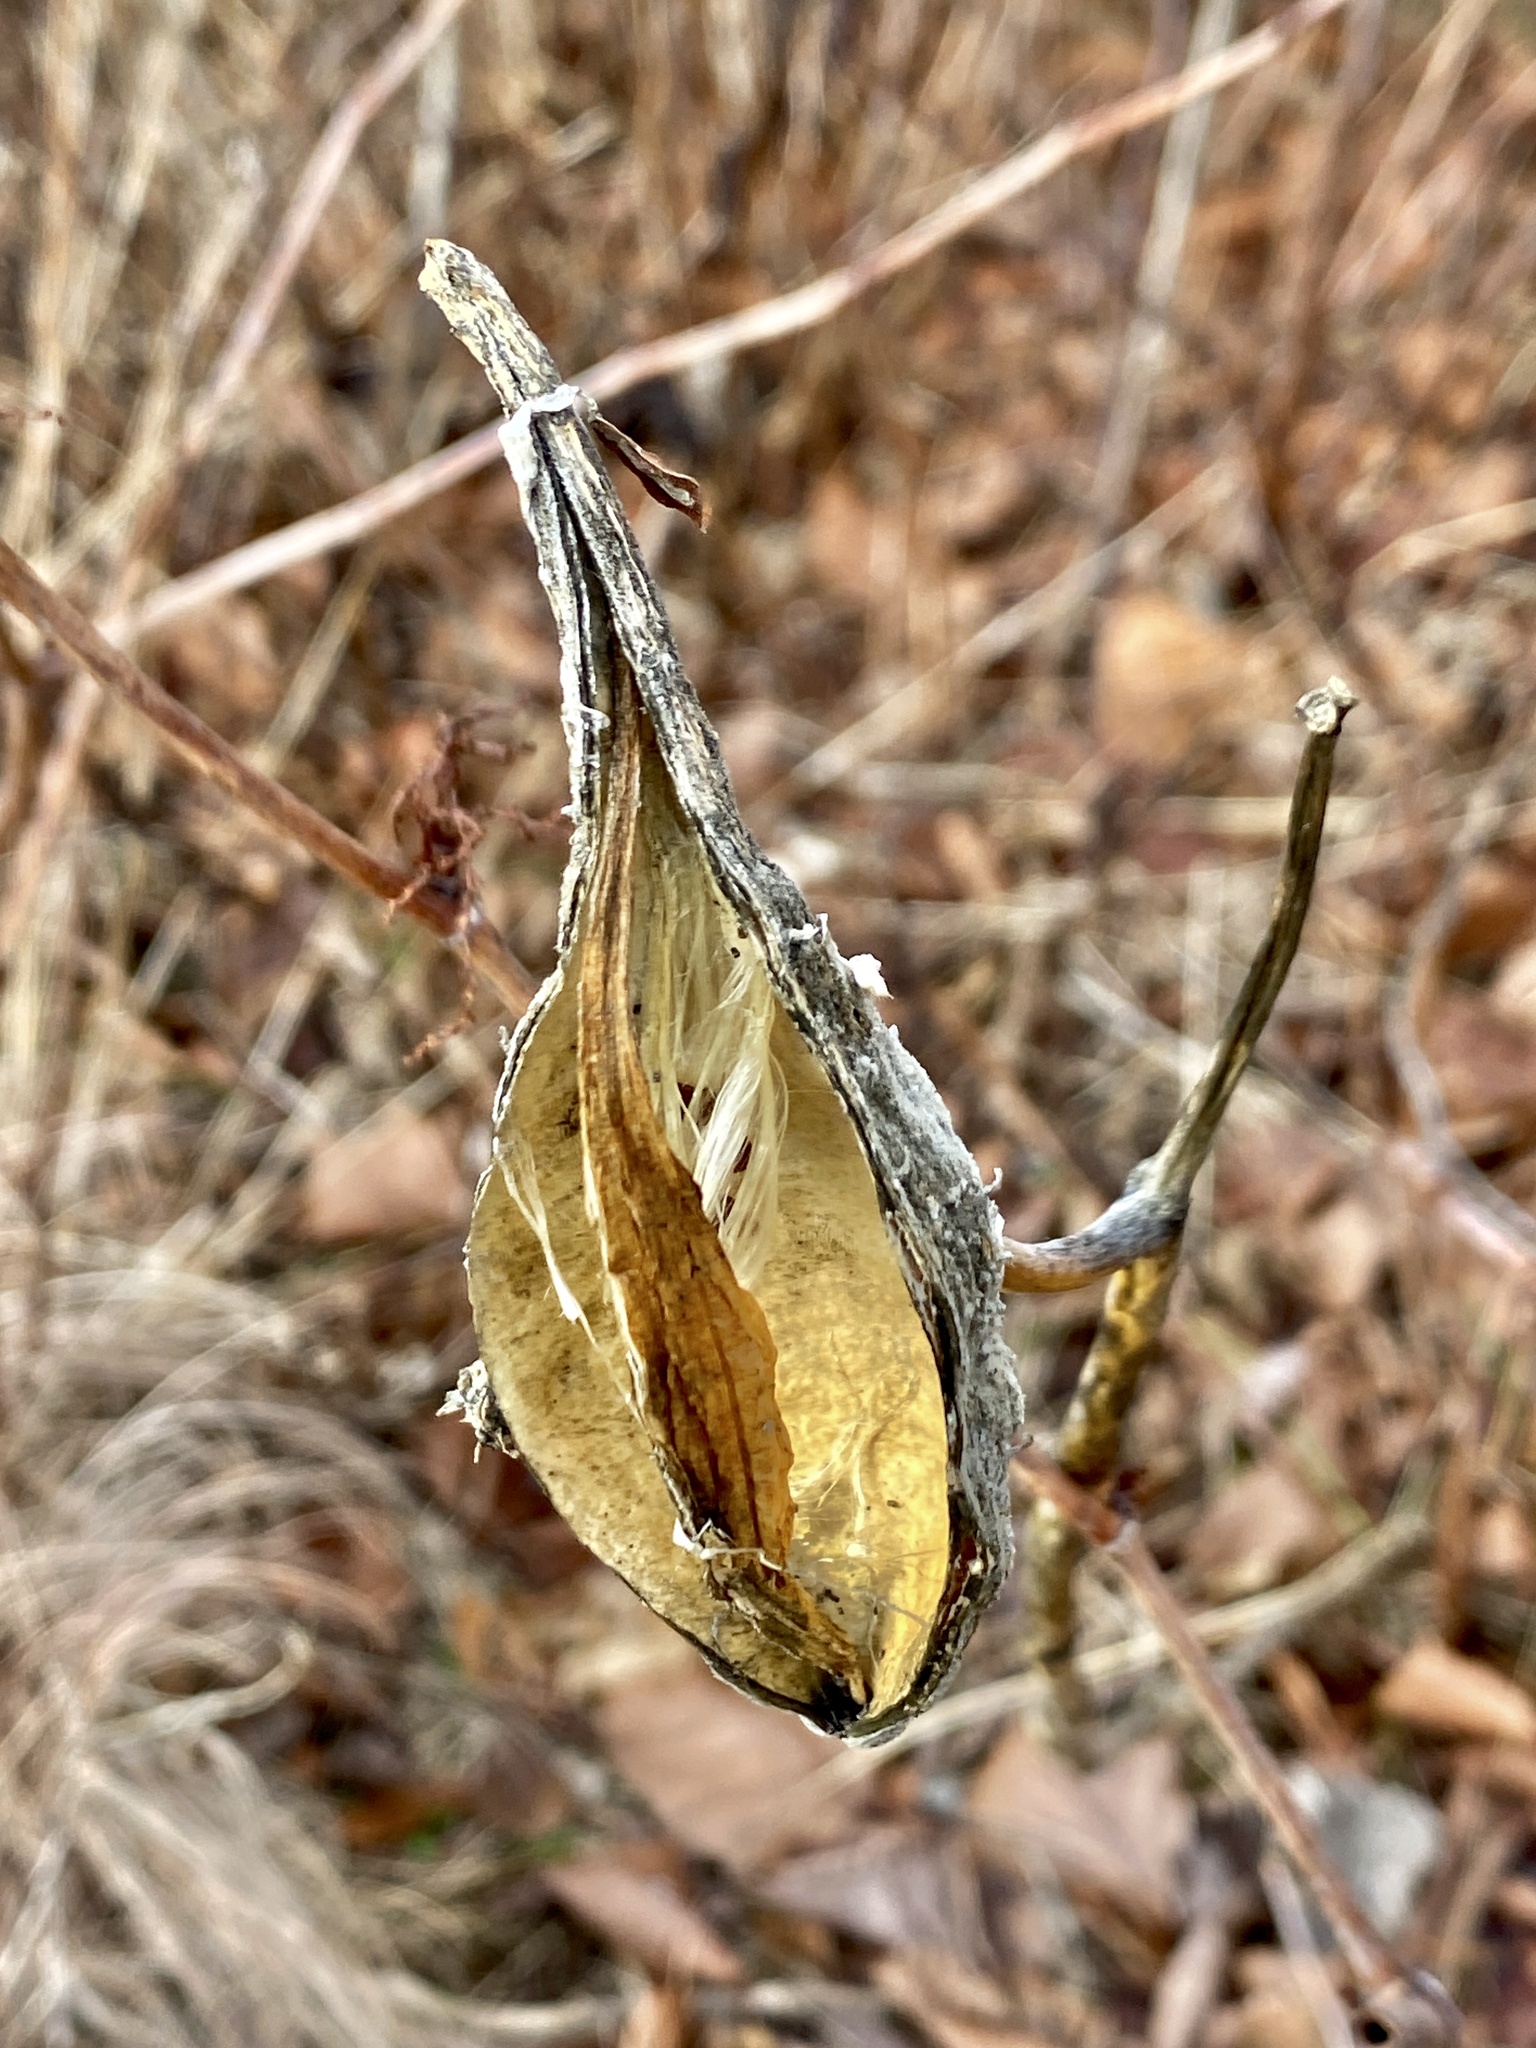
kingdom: Plantae
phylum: Tracheophyta
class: Magnoliopsida
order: Gentianales
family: Apocynaceae
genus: Asclepias
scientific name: Asclepias syriaca
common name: Common milkweed
